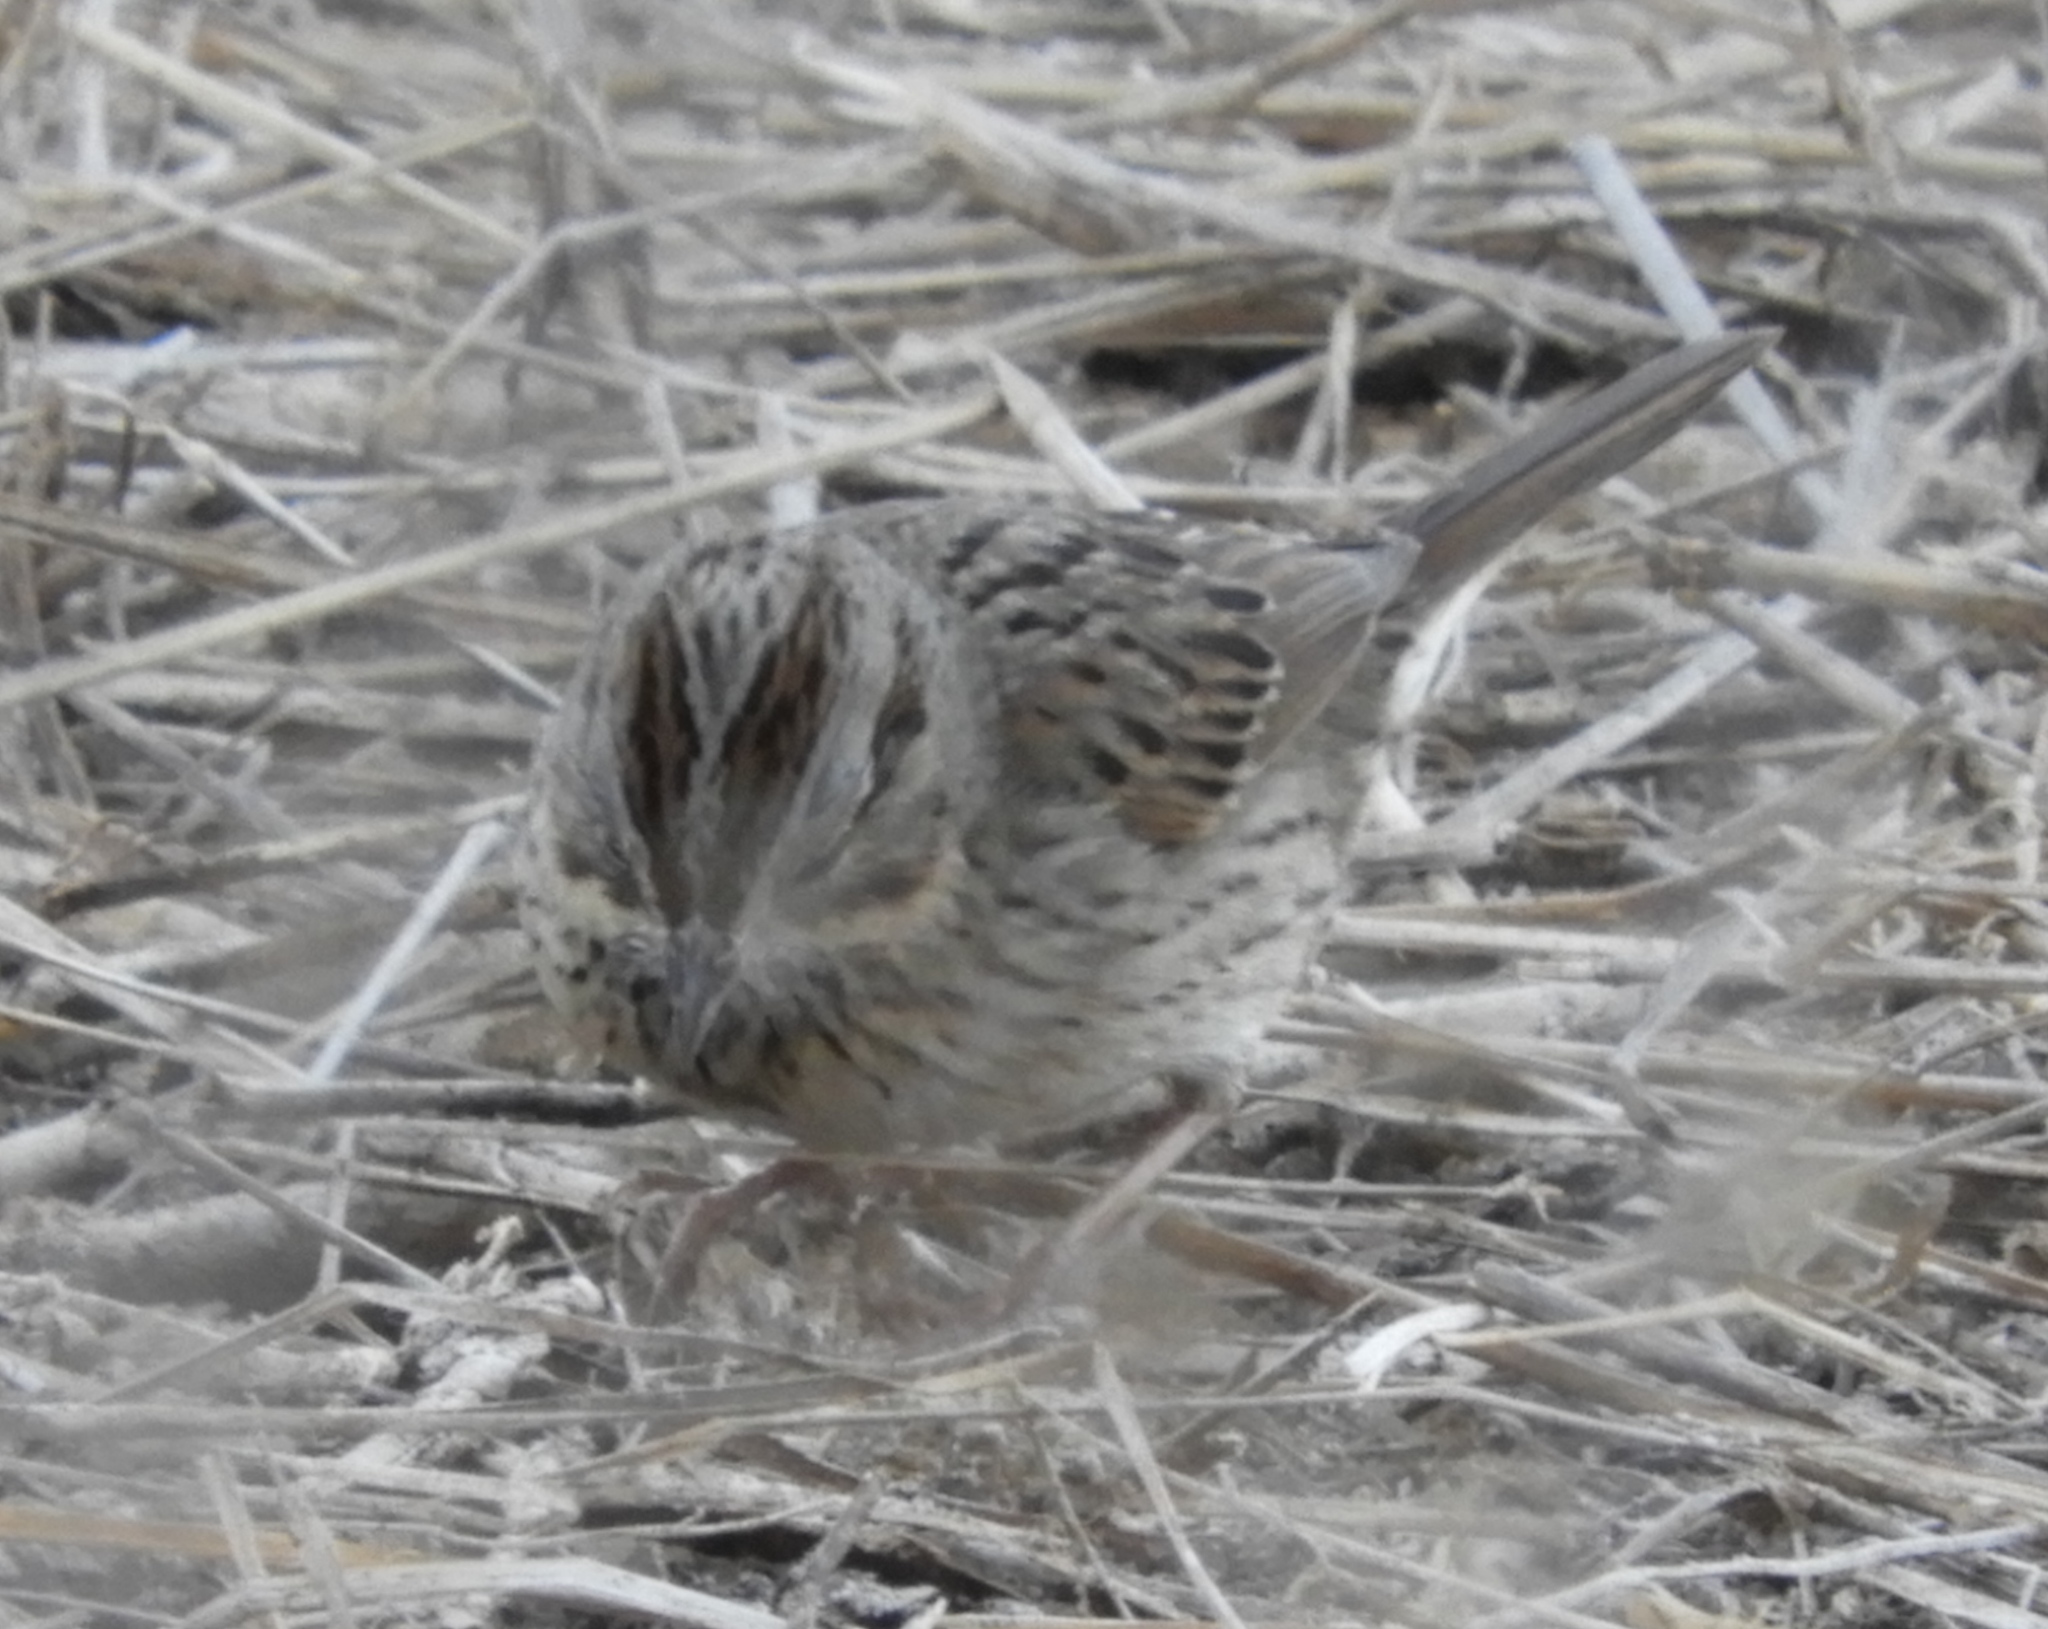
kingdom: Animalia
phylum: Chordata
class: Aves
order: Passeriformes
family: Passerellidae
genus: Melospiza
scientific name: Melospiza lincolnii
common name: Lincoln's sparrow
